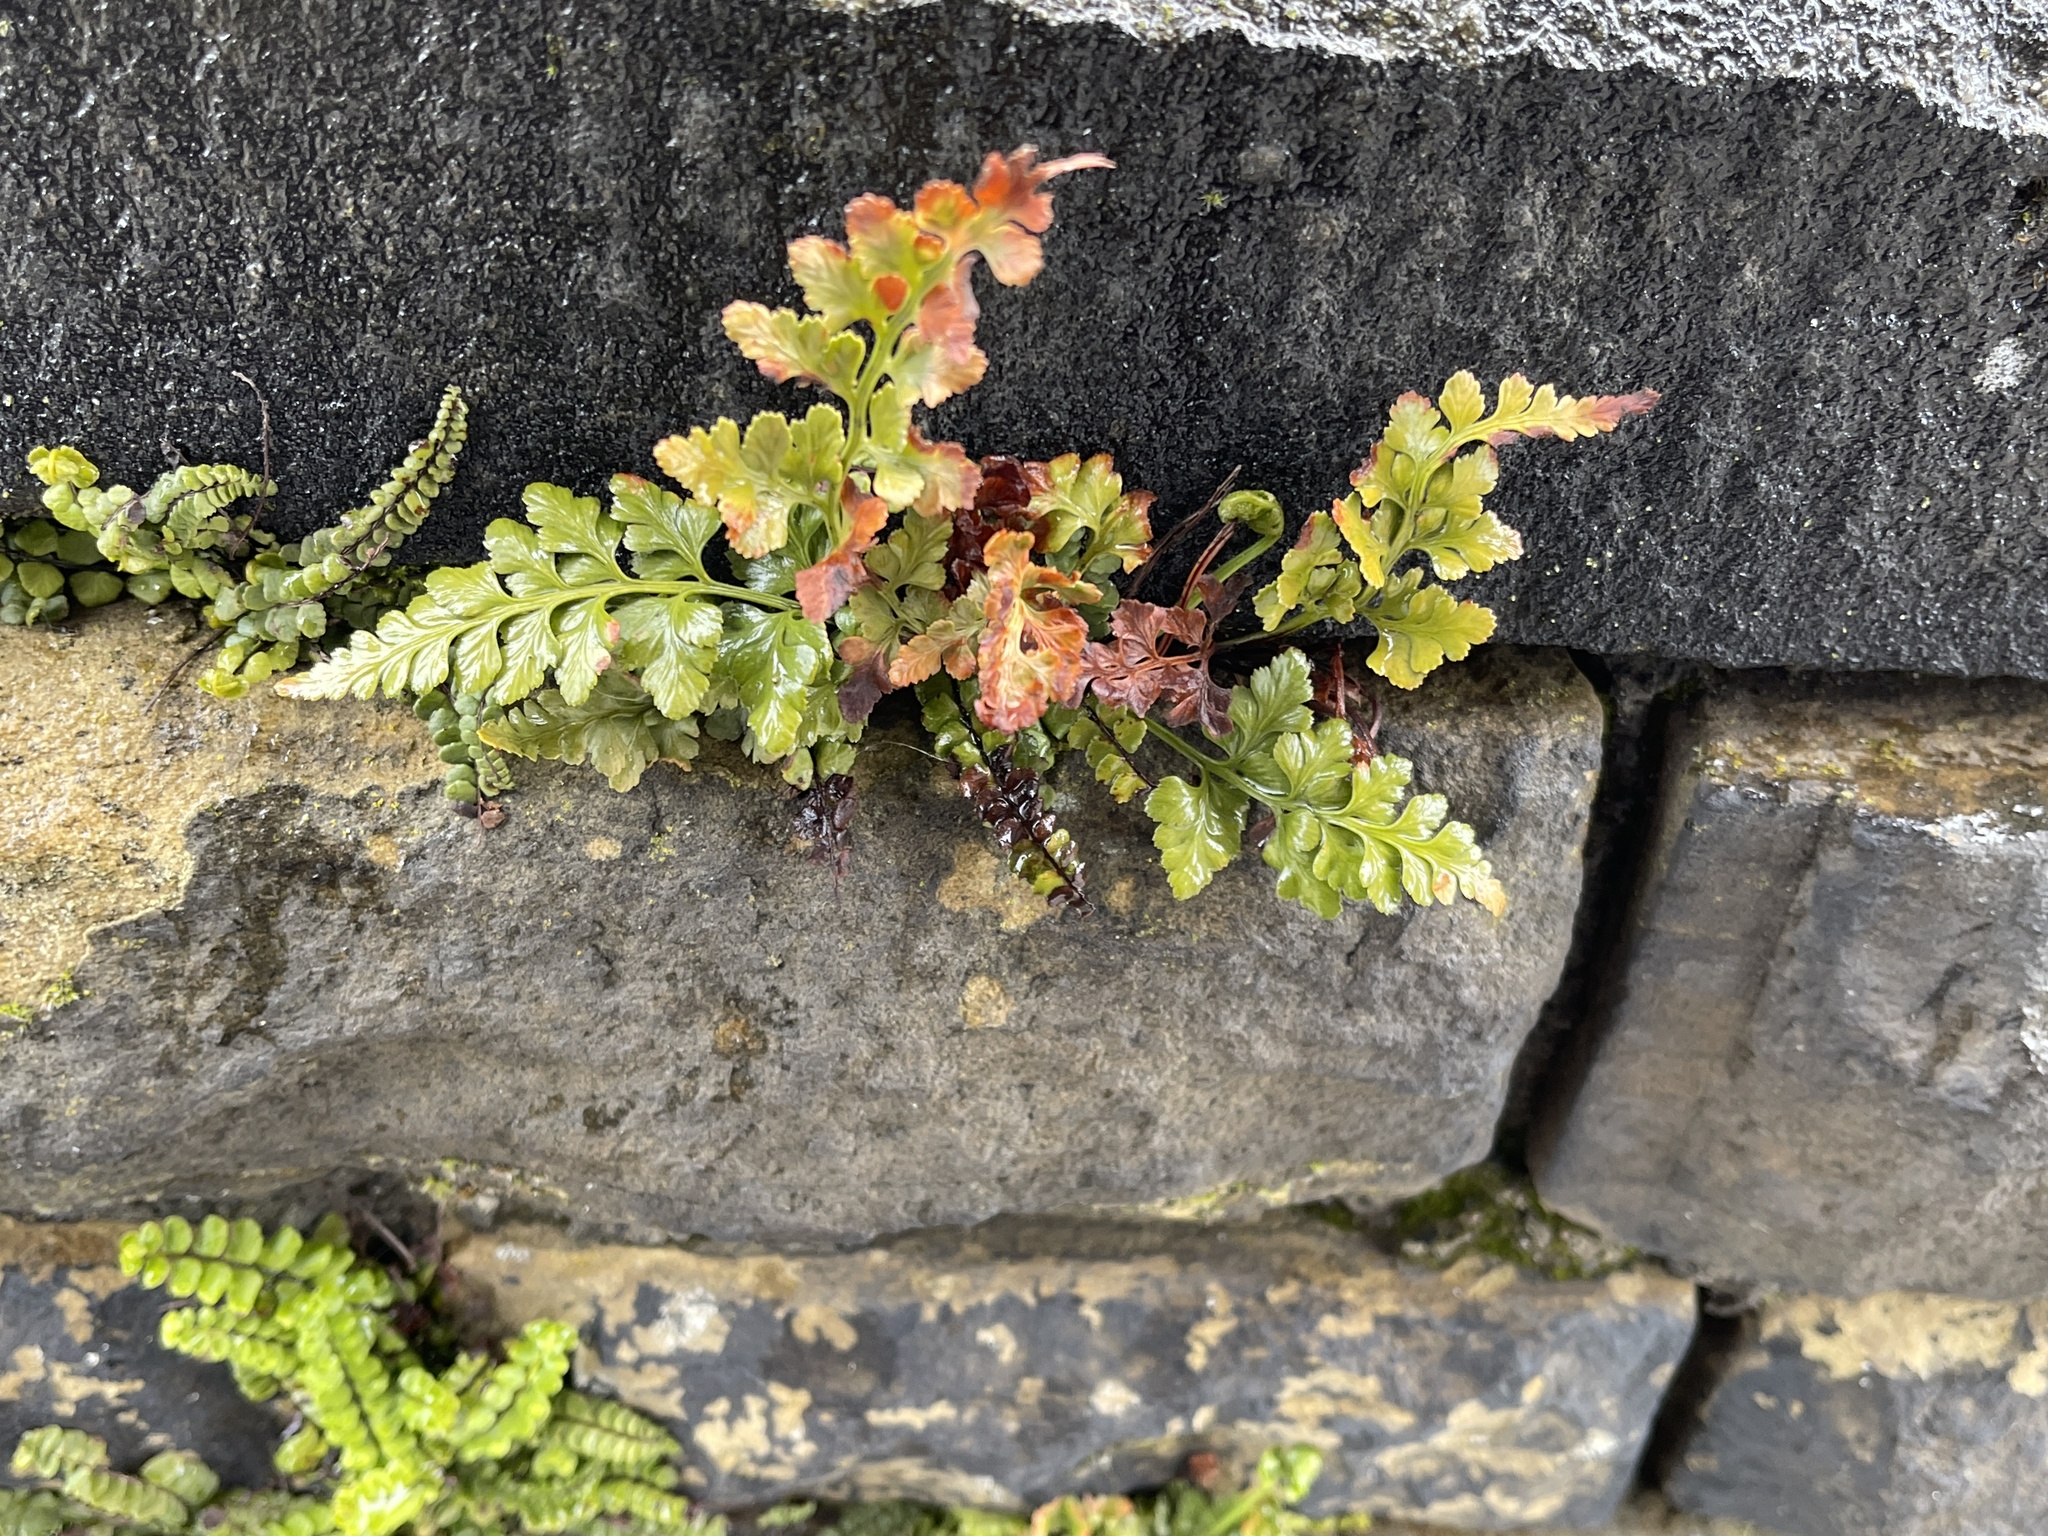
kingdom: Plantae
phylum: Tracheophyta
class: Polypodiopsida
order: Polypodiales
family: Aspleniaceae
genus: Asplenium
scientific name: Asplenium adiantum-nigrum
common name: Black spleenwort
